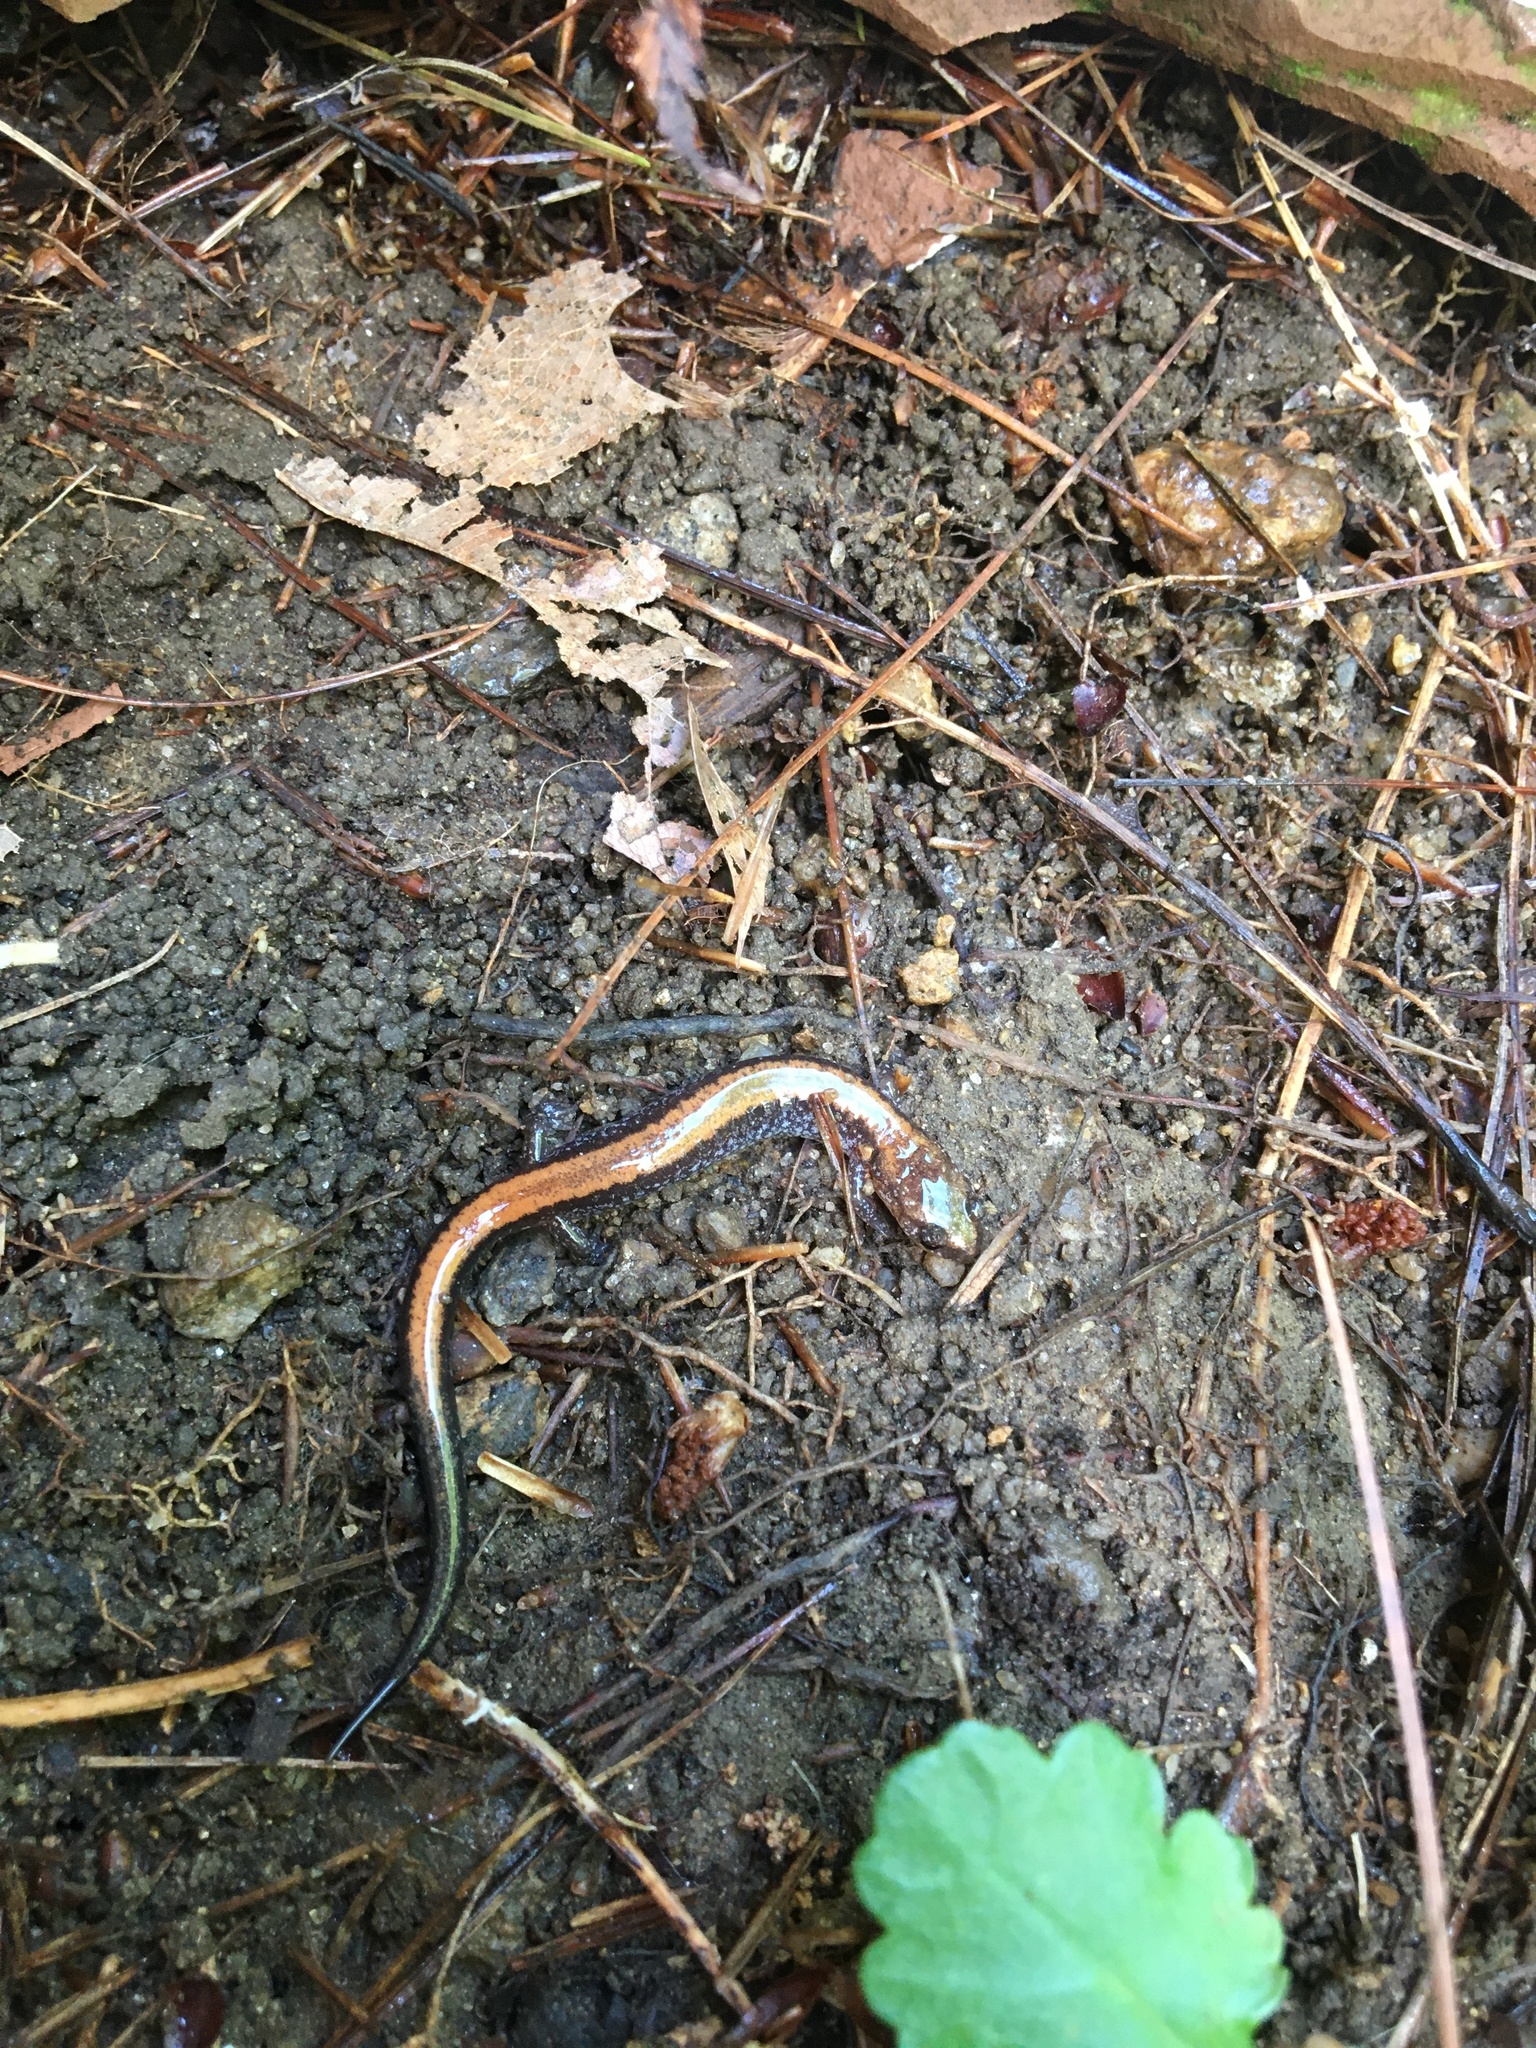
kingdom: Animalia
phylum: Chordata
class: Amphibia
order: Caudata
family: Plethodontidae
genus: Plethodon
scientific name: Plethodon cinereus
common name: Redback salamander
